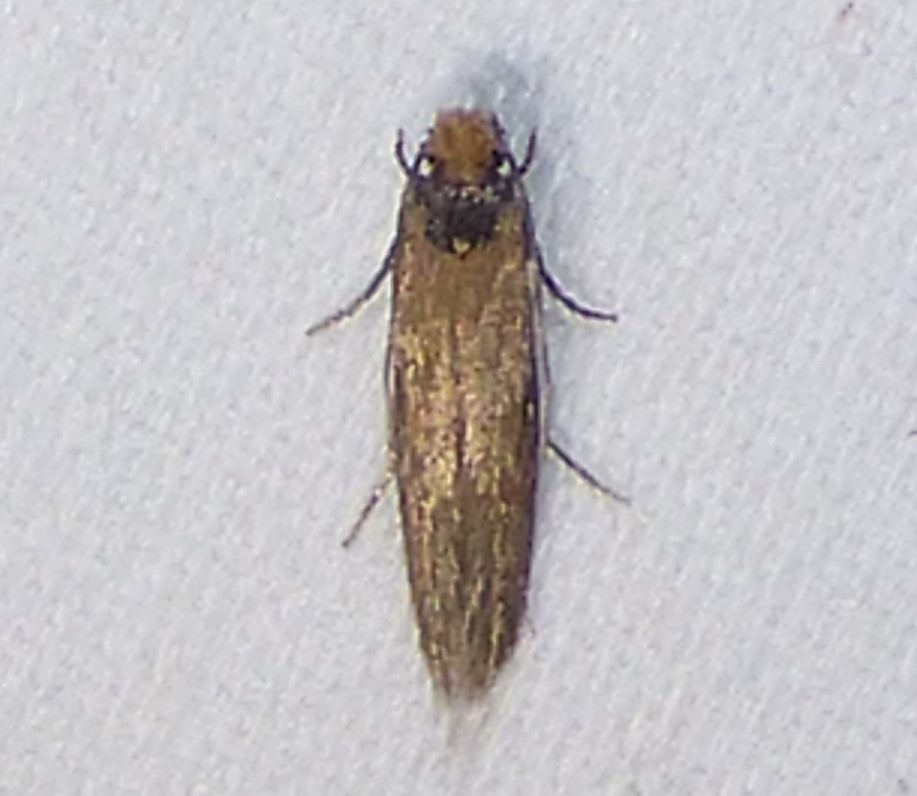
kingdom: Animalia
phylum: Arthropoda
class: Insecta
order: Lepidoptera
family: Meessiidae
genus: Homostinea
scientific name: Homostinea curviliniella
